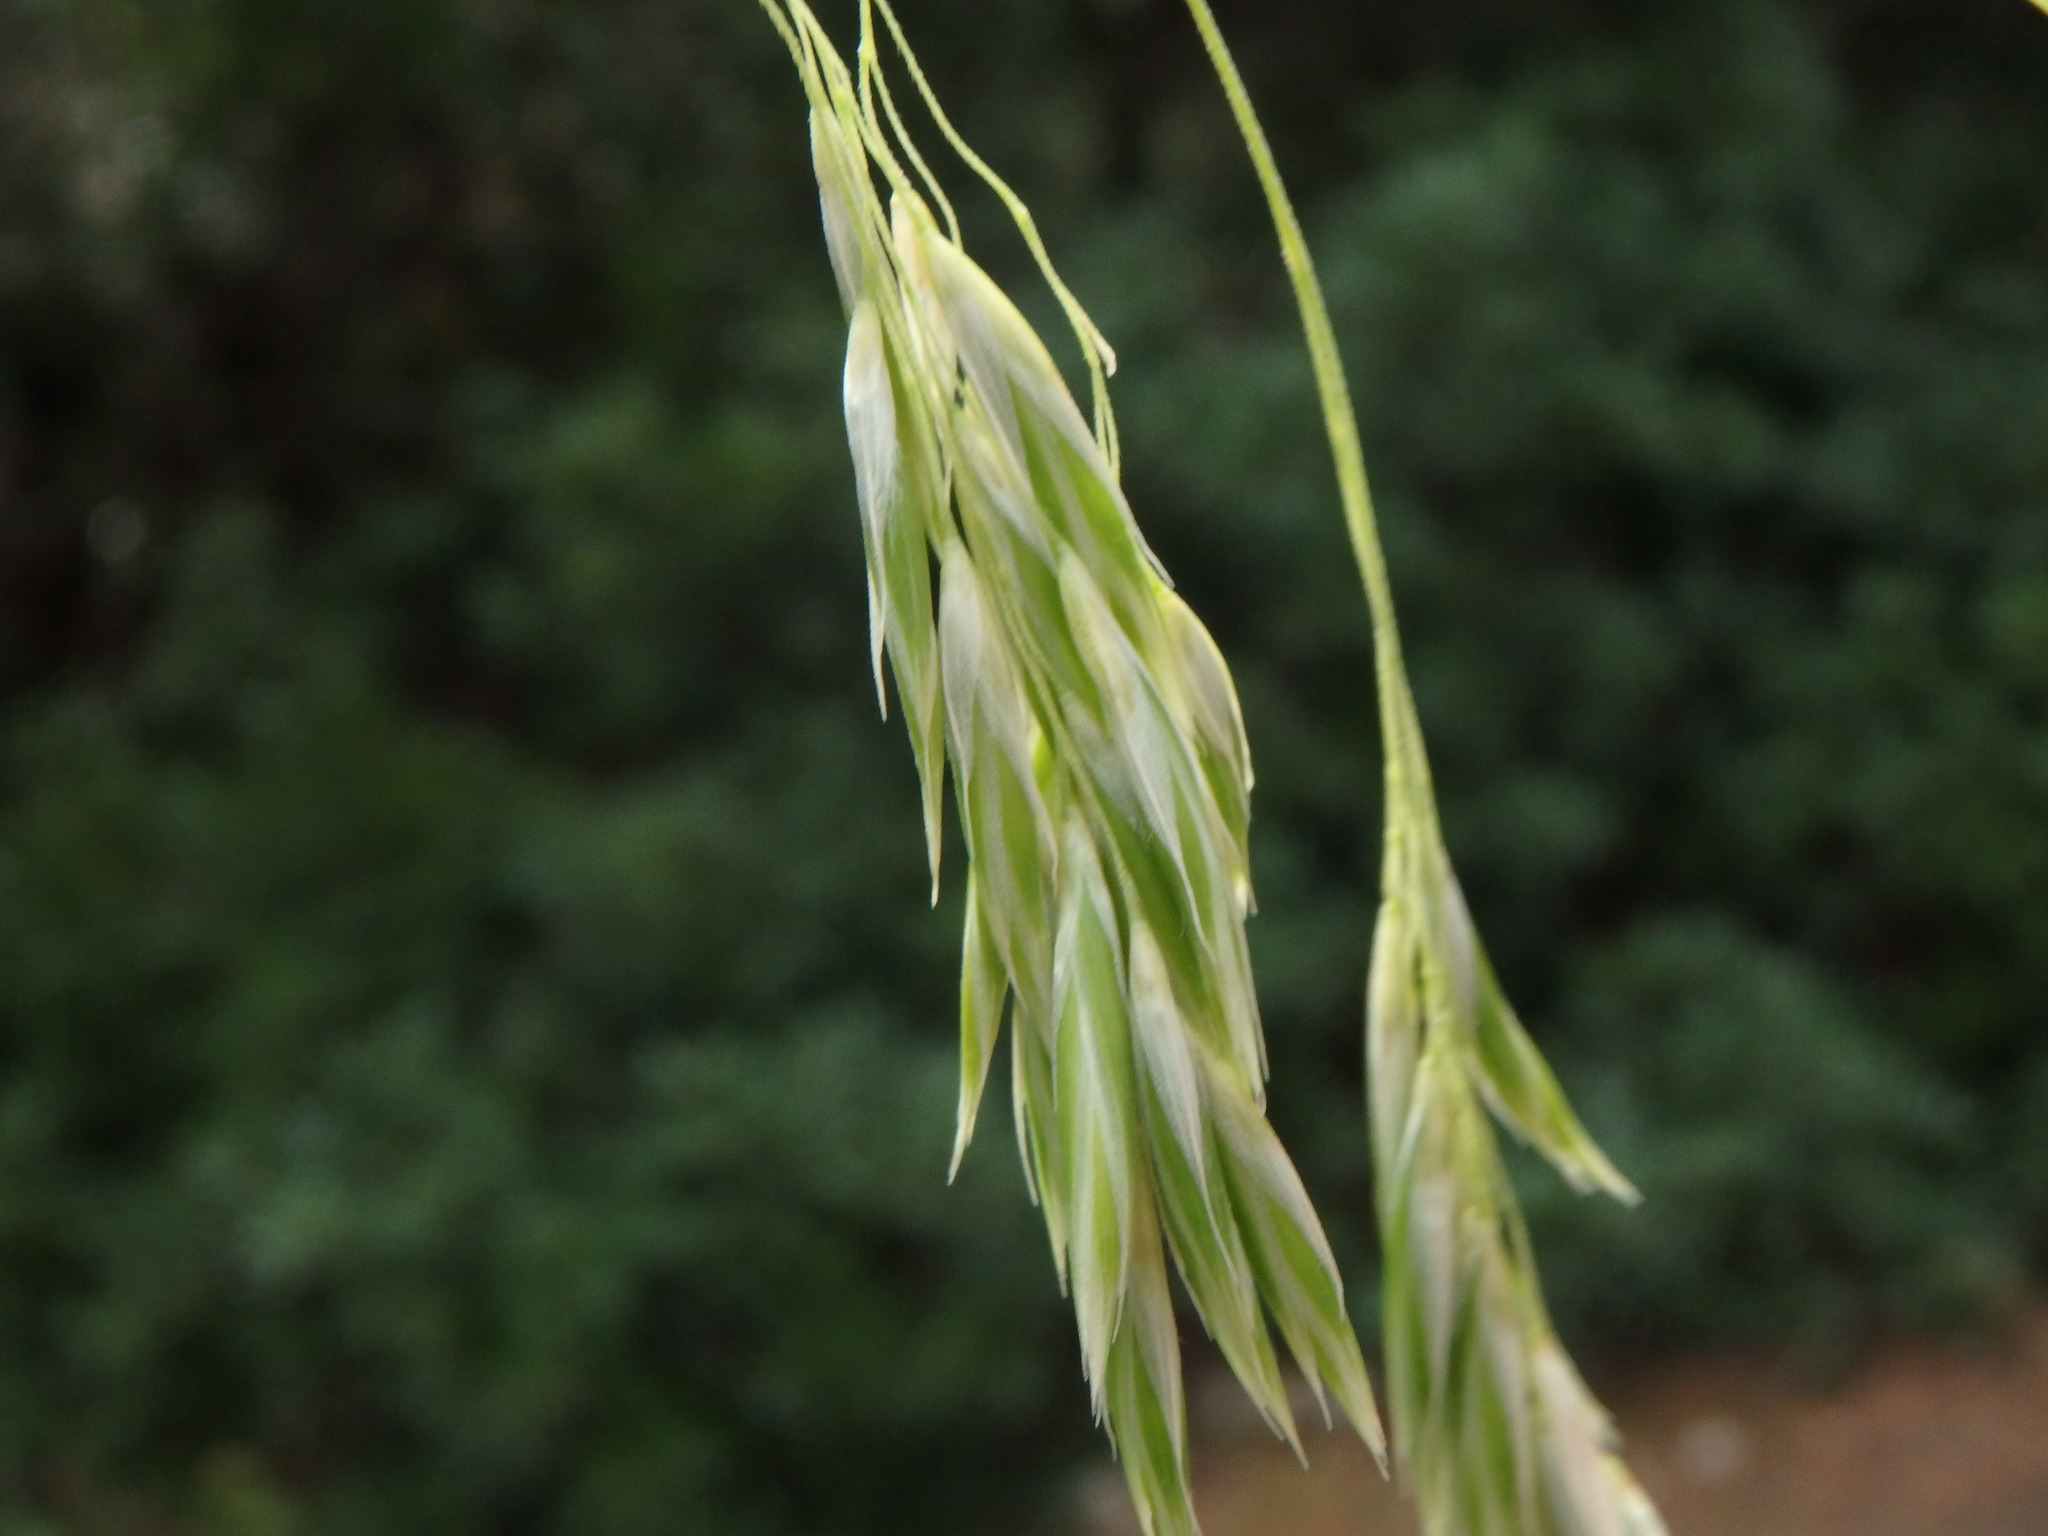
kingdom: Plantae
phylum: Tracheophyta
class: Liliopsida
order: Poales
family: Poaceae
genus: Ampelodesmos
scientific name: Ampelodesmos mauritanicus
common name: Mauritanian grass
